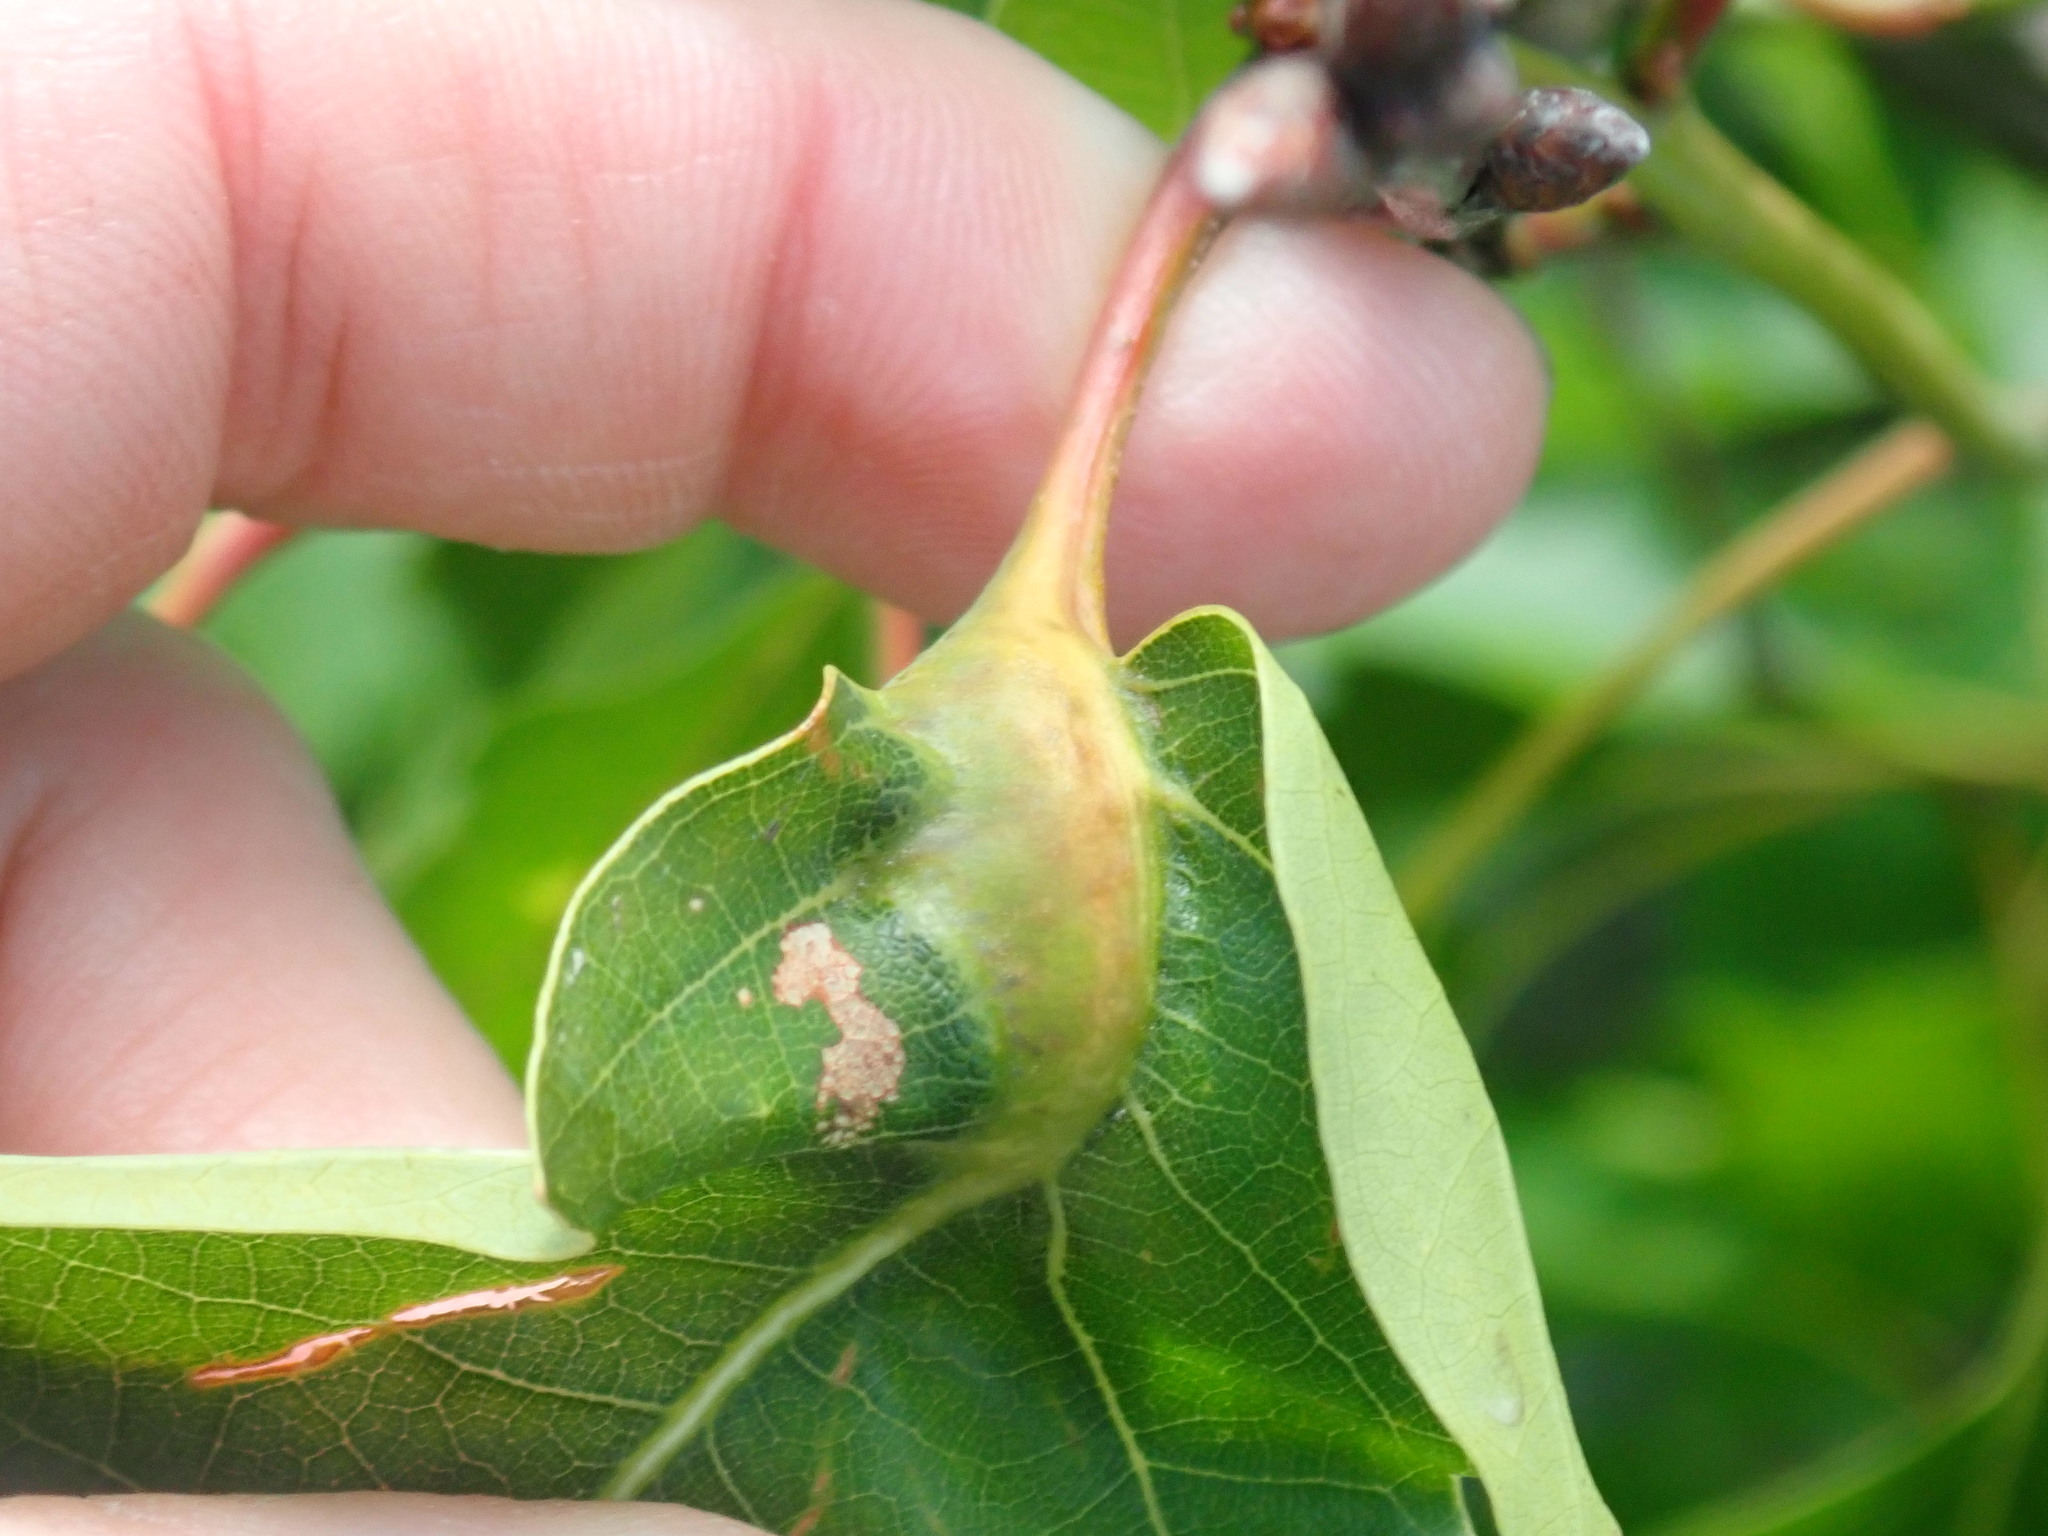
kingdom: Animalia
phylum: Arthropoda
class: Insecta
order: Hymenoptera
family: Cynipidae
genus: Melikaiella
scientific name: Melikaiella tumifica
